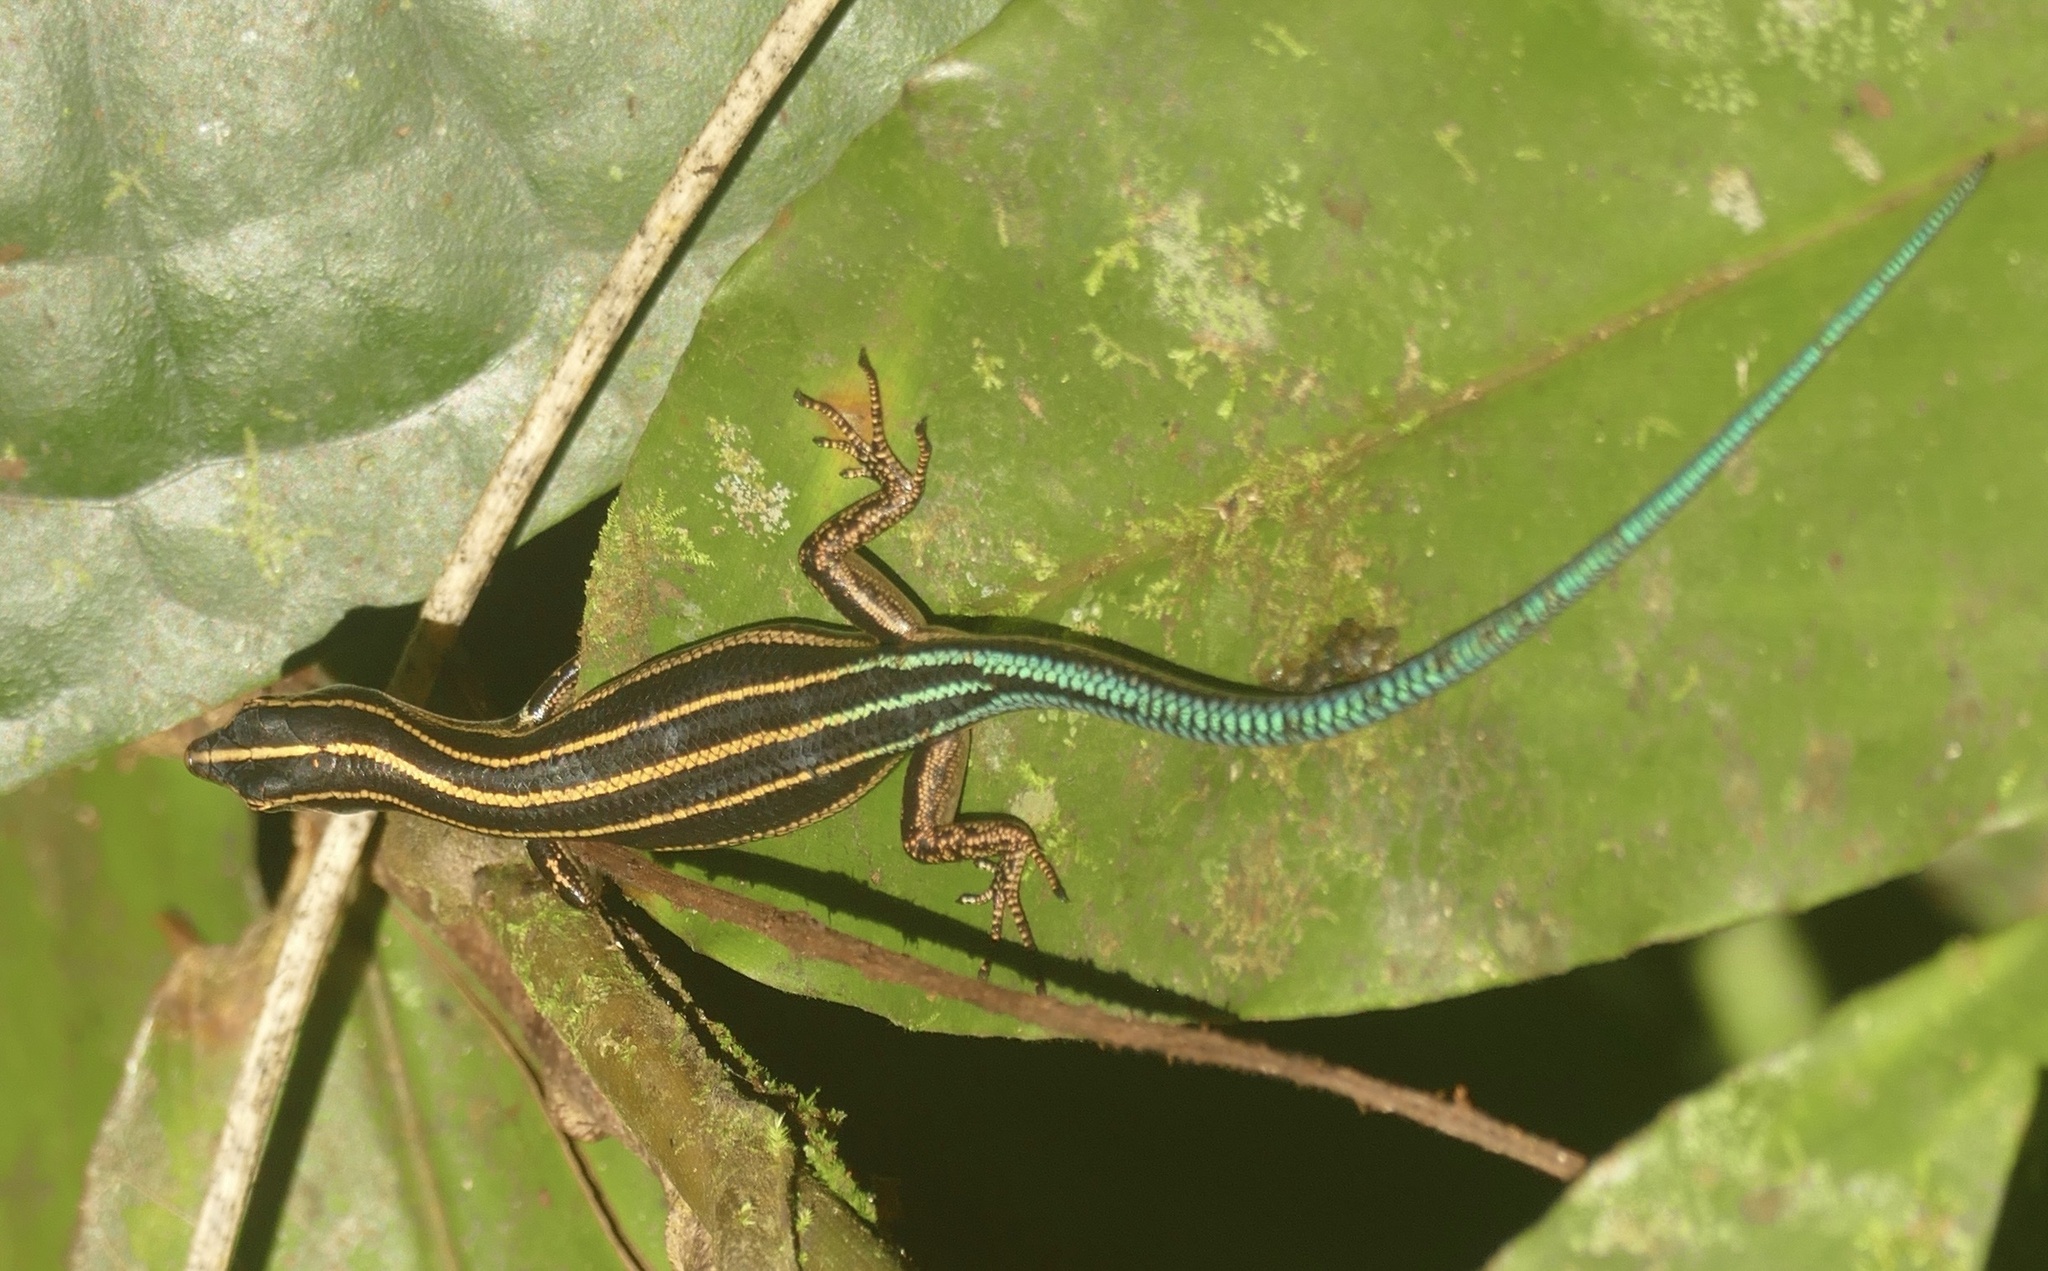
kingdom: Animalia
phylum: Chordata
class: Squamata
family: Scincidae
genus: Emoia
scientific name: Emoia caeruleocauda
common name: Pacific bluetail skink
